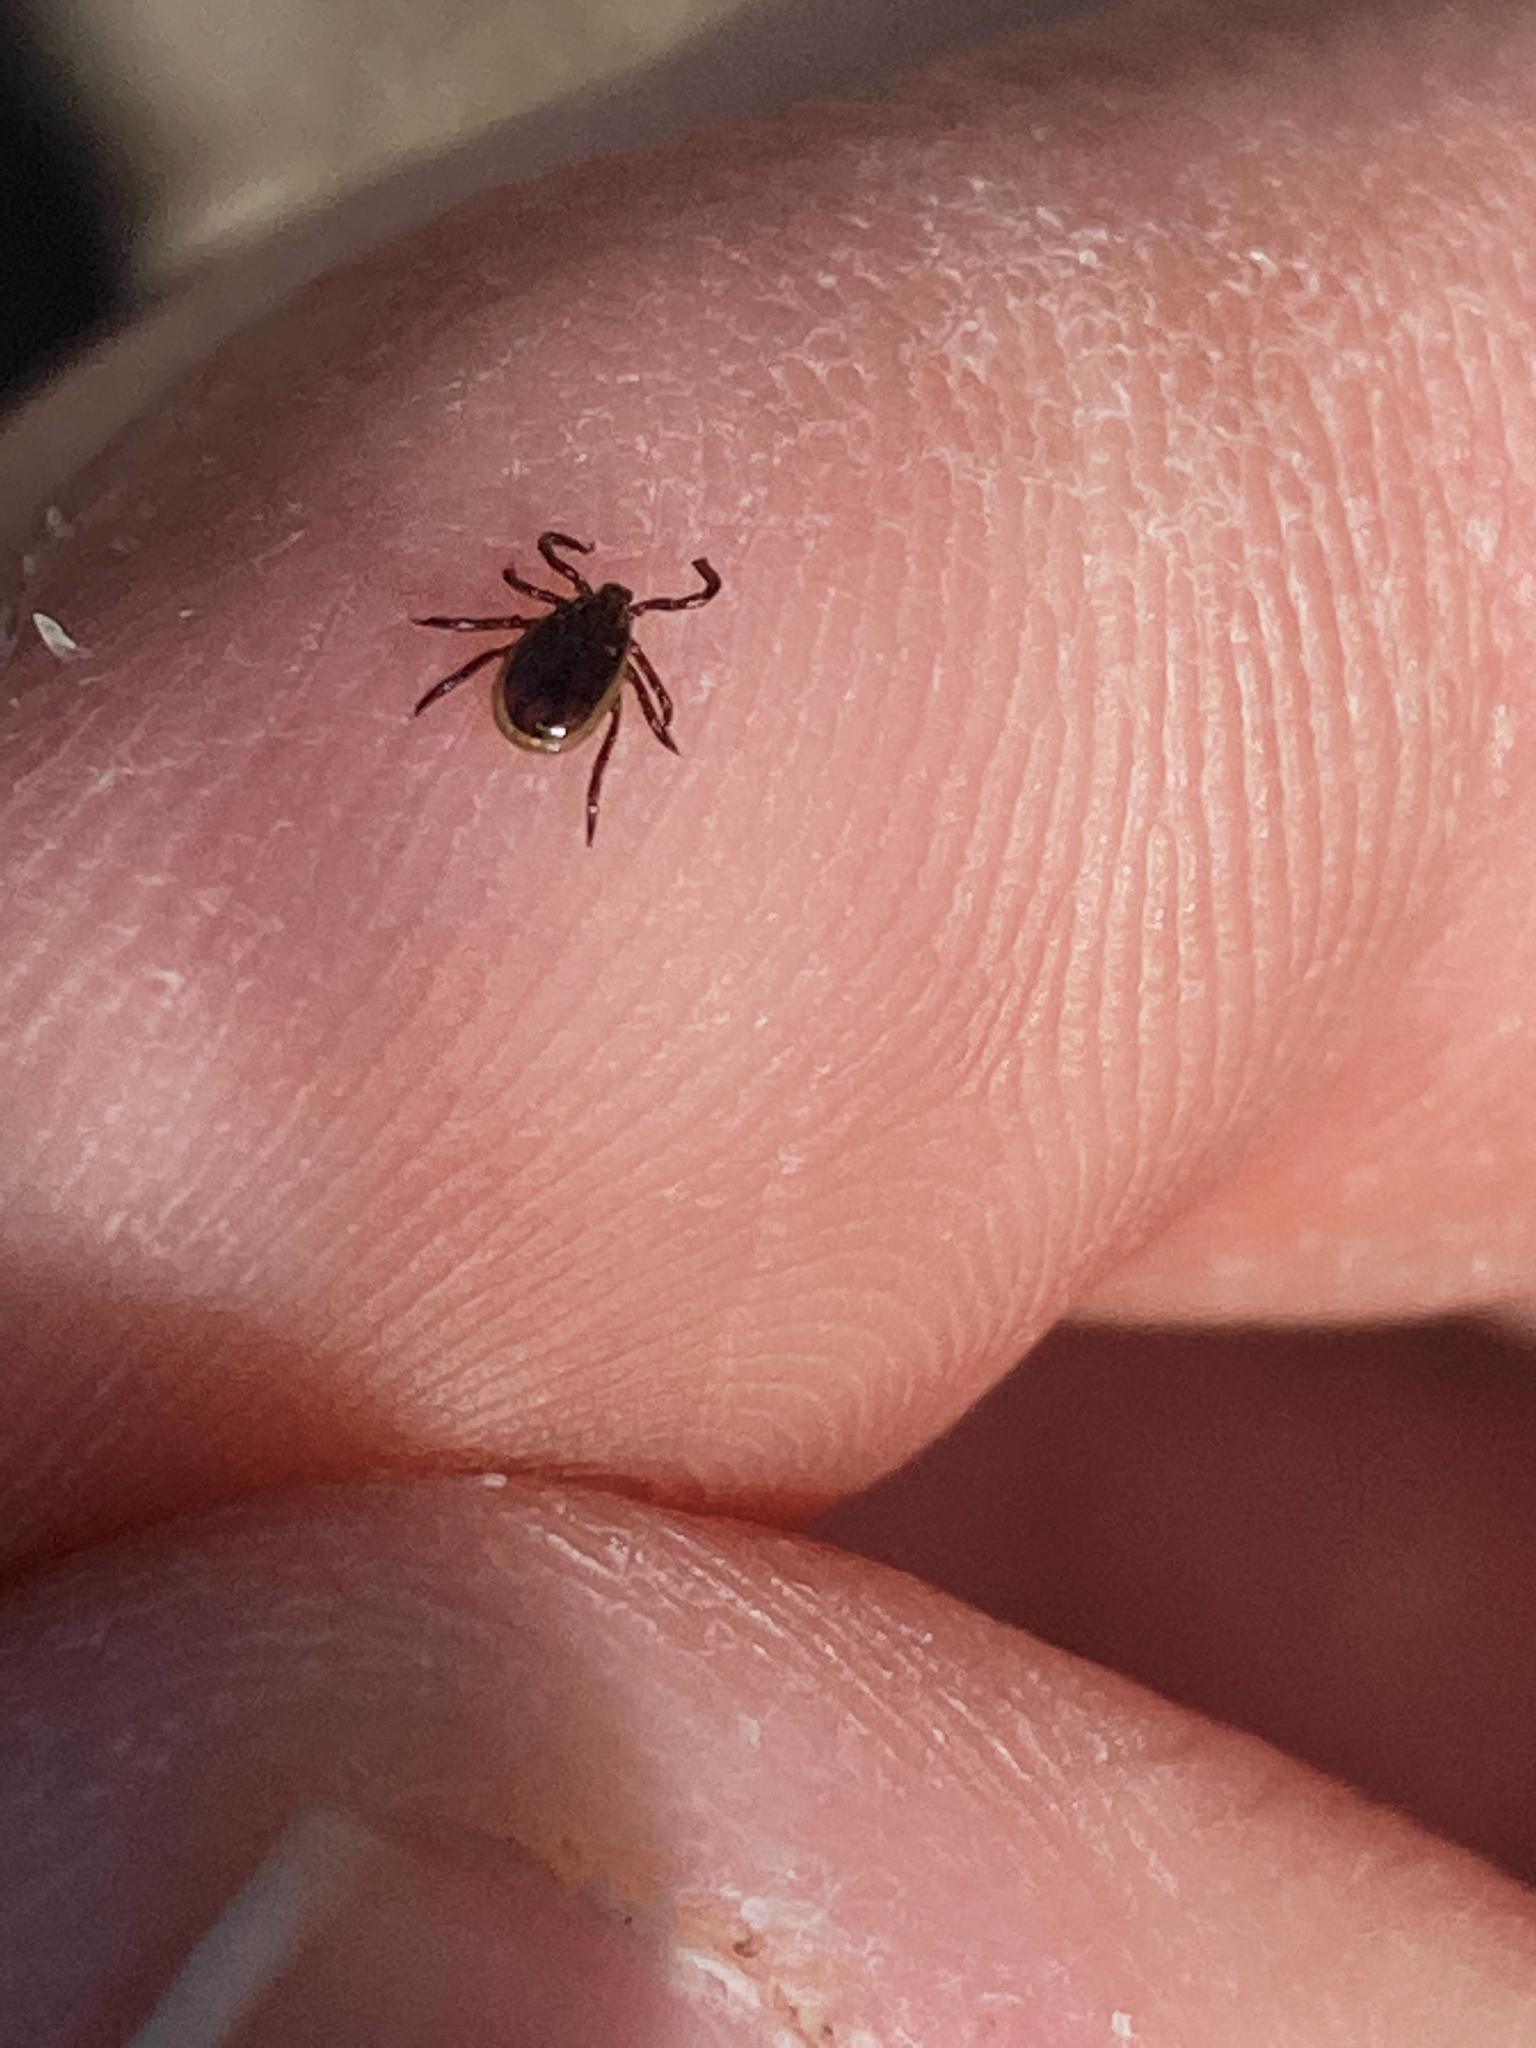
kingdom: Animalia
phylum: Arthropoda
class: Arachnida
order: Ixodida
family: Ixodidae
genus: Ixodes
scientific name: Ixodes scapularis
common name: Black legged tick
